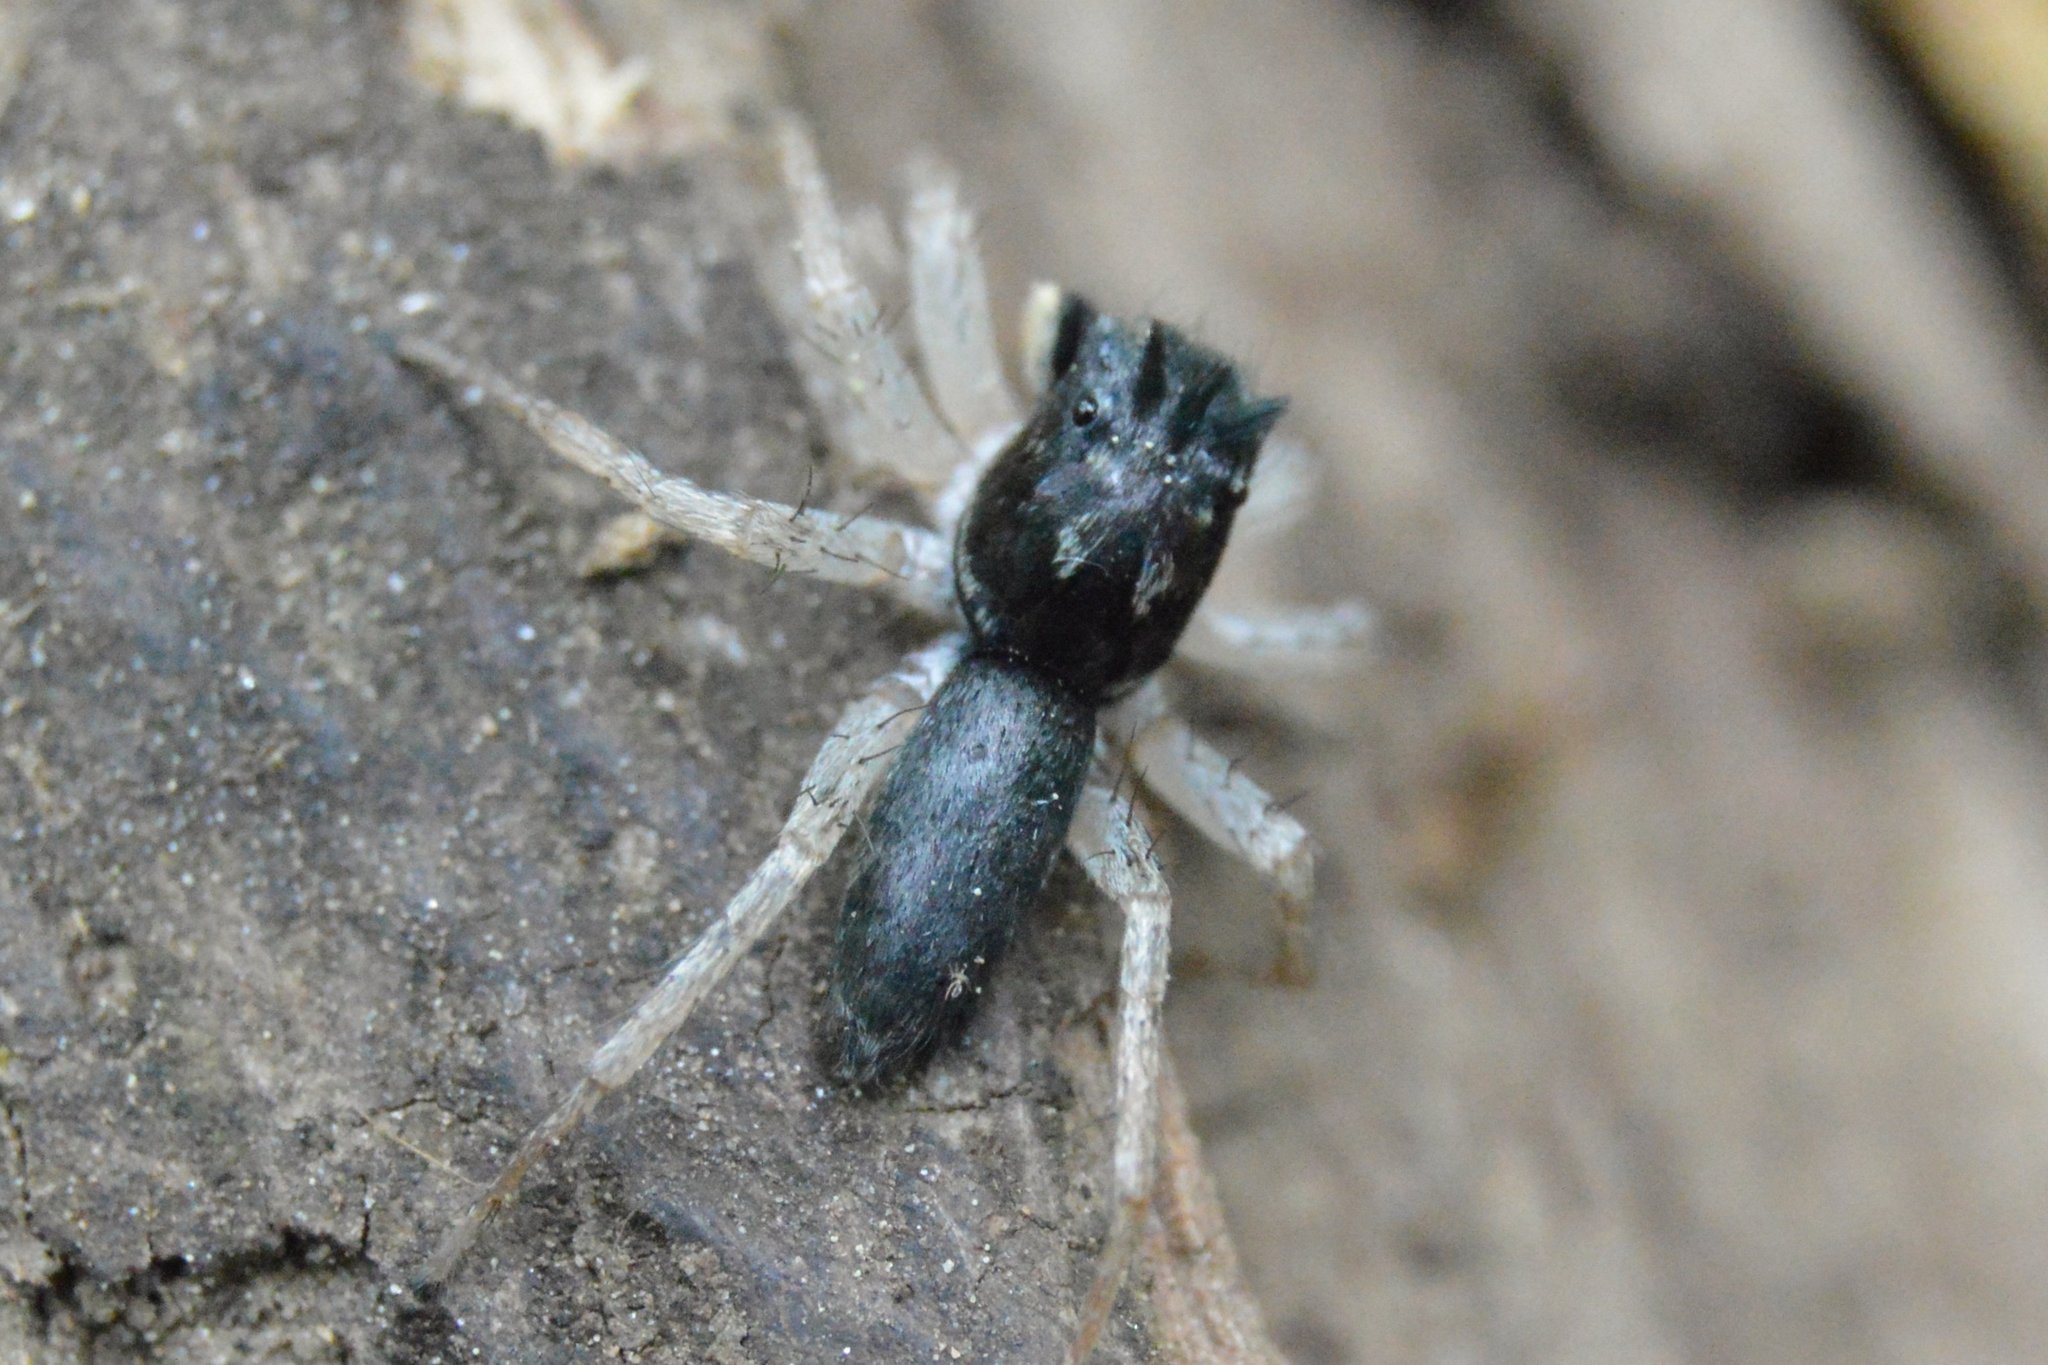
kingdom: Animalia
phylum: Arthropoda
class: Arachnida
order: Araneae
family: Salticidae
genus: Maevia
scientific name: Maevia inclemens
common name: Dimorphic jumper
